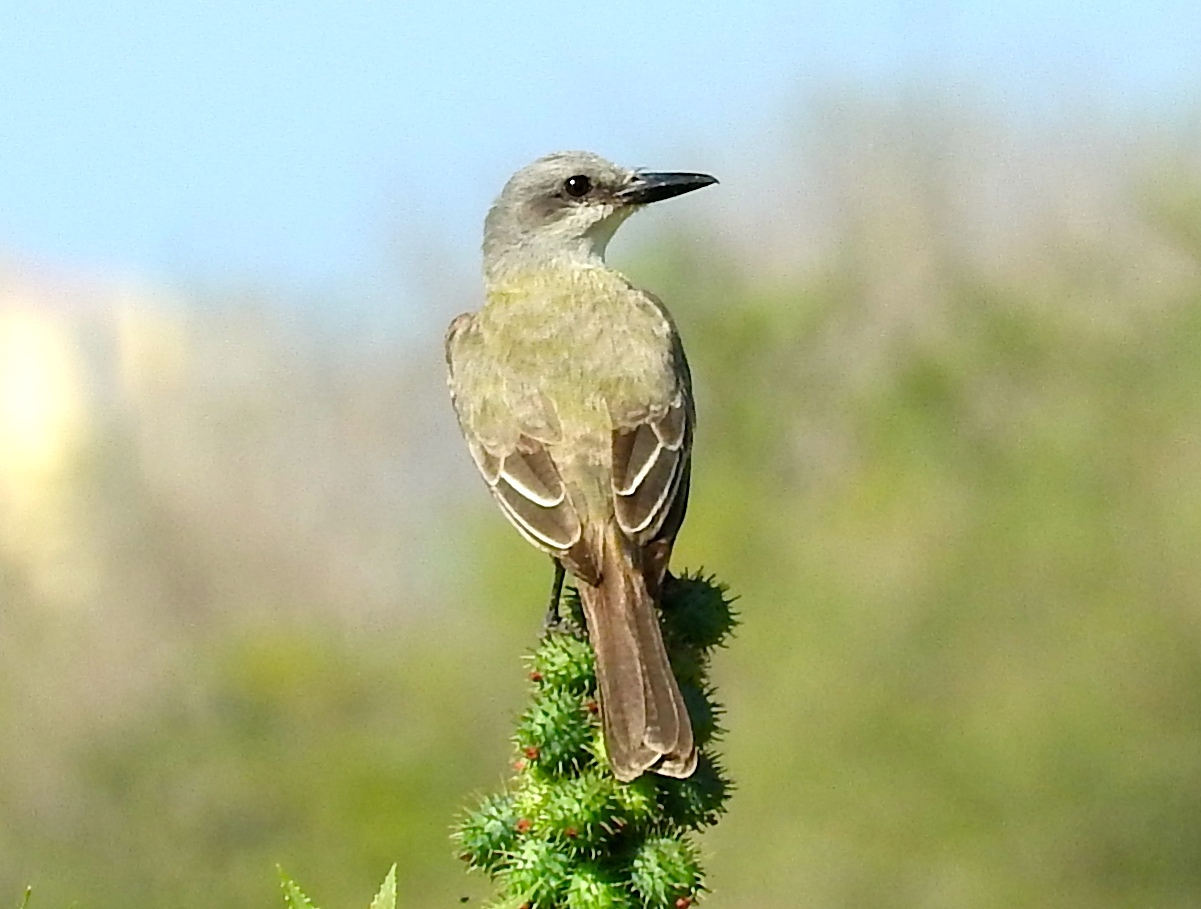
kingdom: Animalia
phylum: Chordata
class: Aves
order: Passeriformes
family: Tyrannidae
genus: Tyrannus
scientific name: Tyrannus melancholicus
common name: Tropical kingbird
